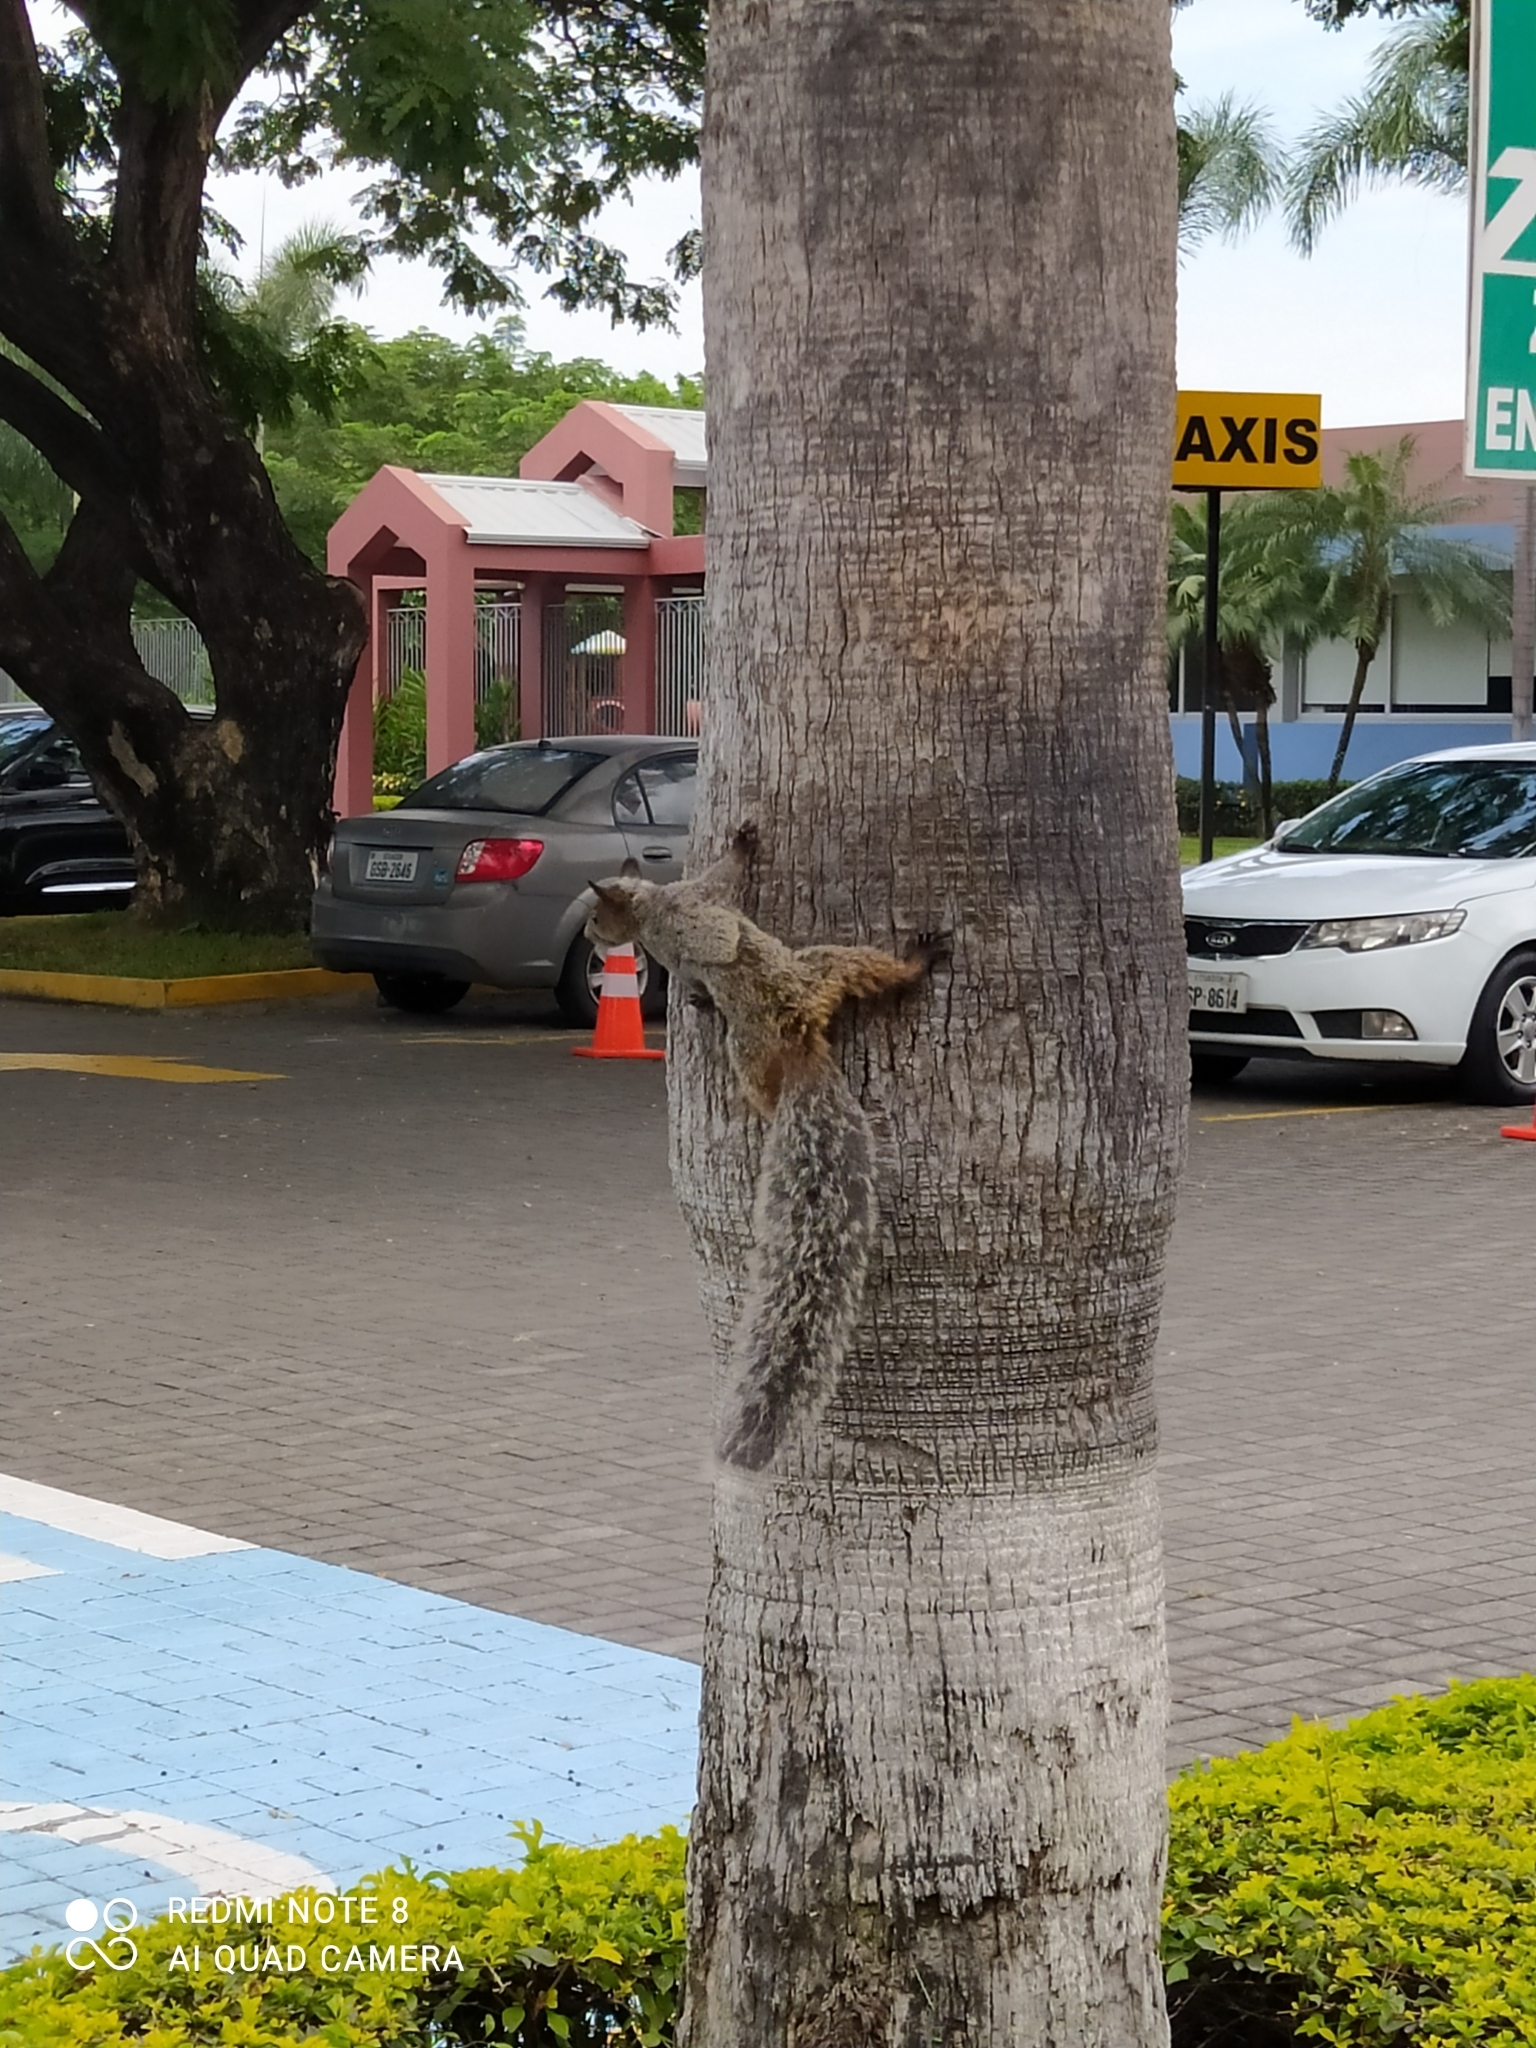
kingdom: Animalia
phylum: Chordata
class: Mammalia
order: Rodentia
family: Sciuridae
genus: Sciurus
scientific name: Sciurus stramineus
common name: Guayaquil squirrel
